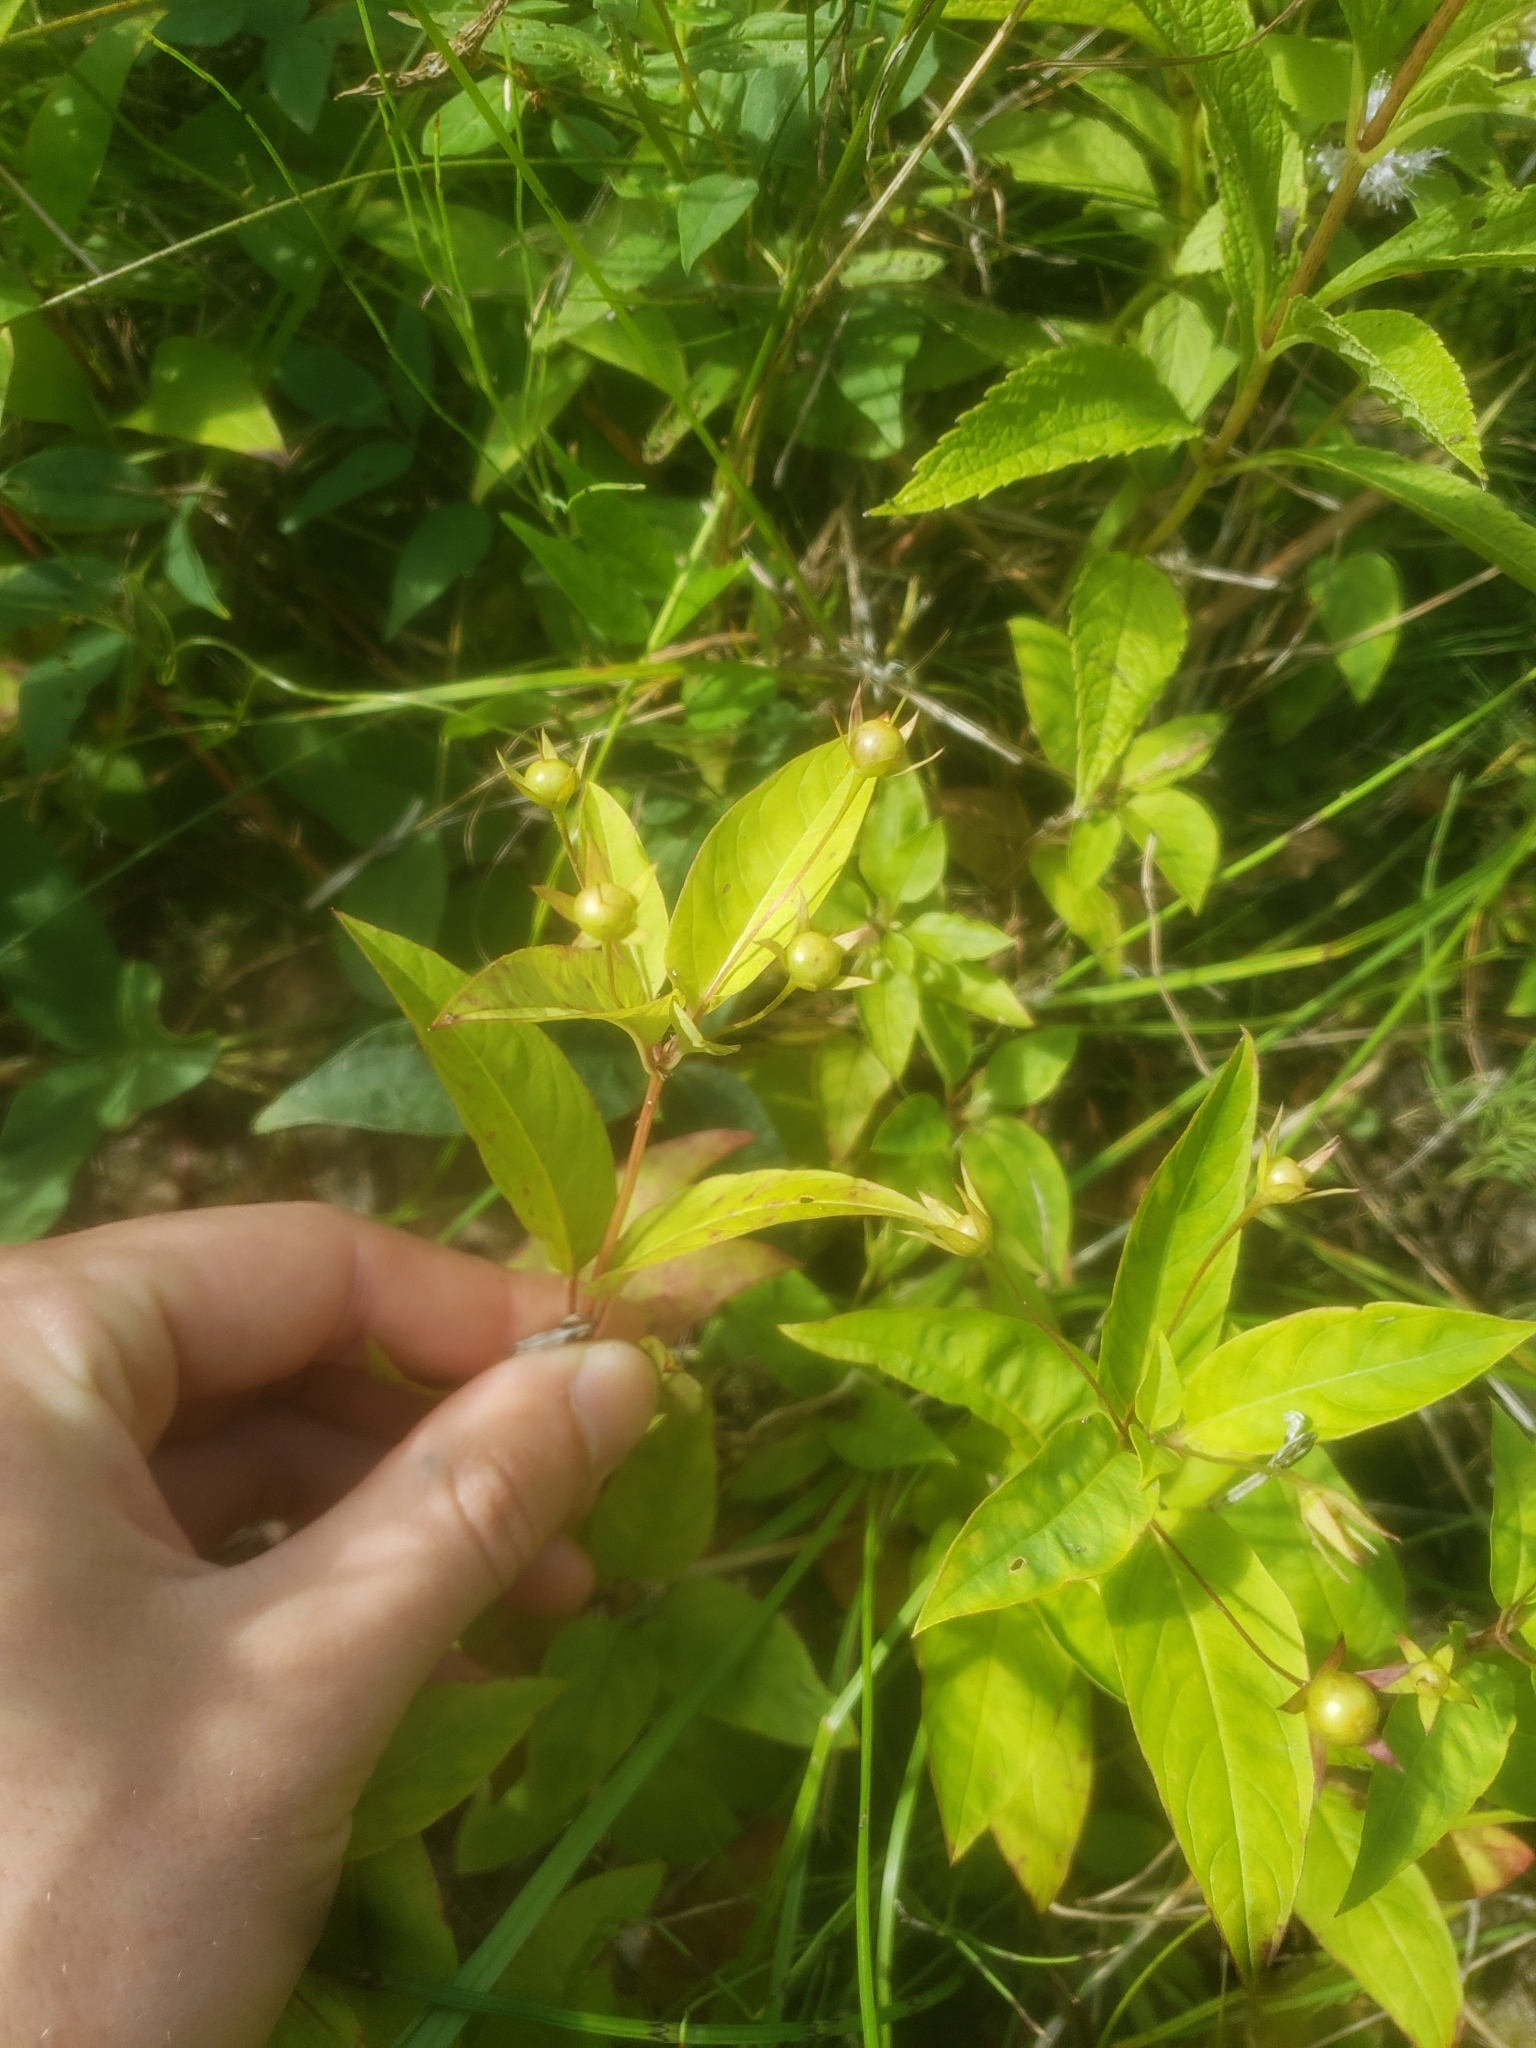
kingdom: Plantae
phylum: Tracheophyta
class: Magnoliopsida
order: Ericales
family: Primulaceae
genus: Lysimachia
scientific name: Lysimachia ciliata
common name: Fringed loosestrife
